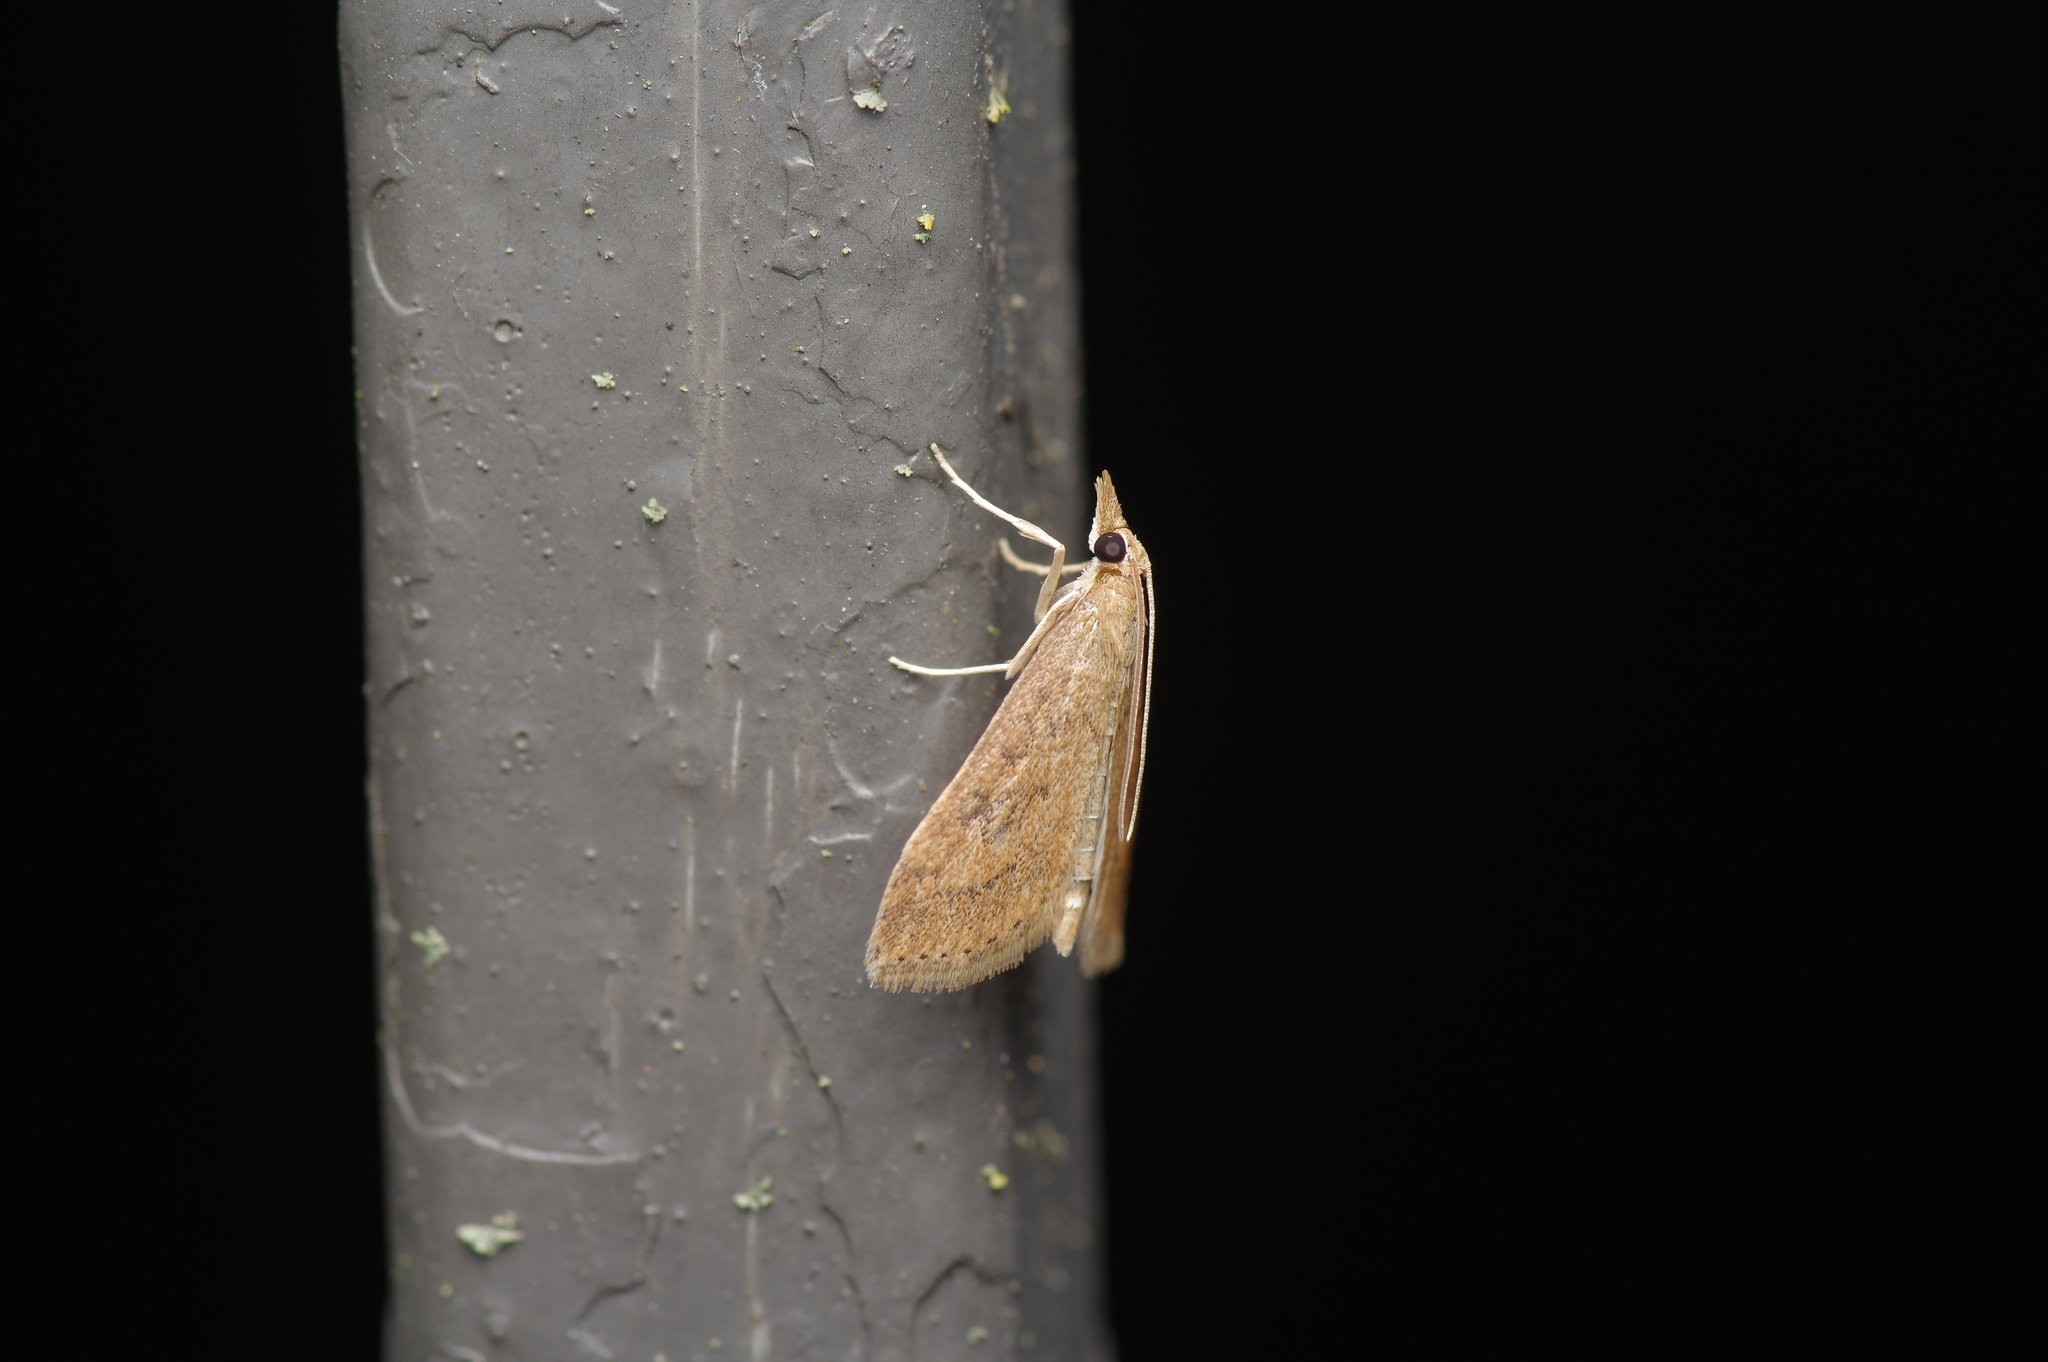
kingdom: Animalia
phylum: Arthropoda
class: Insecta
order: Lepidoptera
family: Crambidae
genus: Achyra
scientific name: Achyra rantalis
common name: Garden webworm
